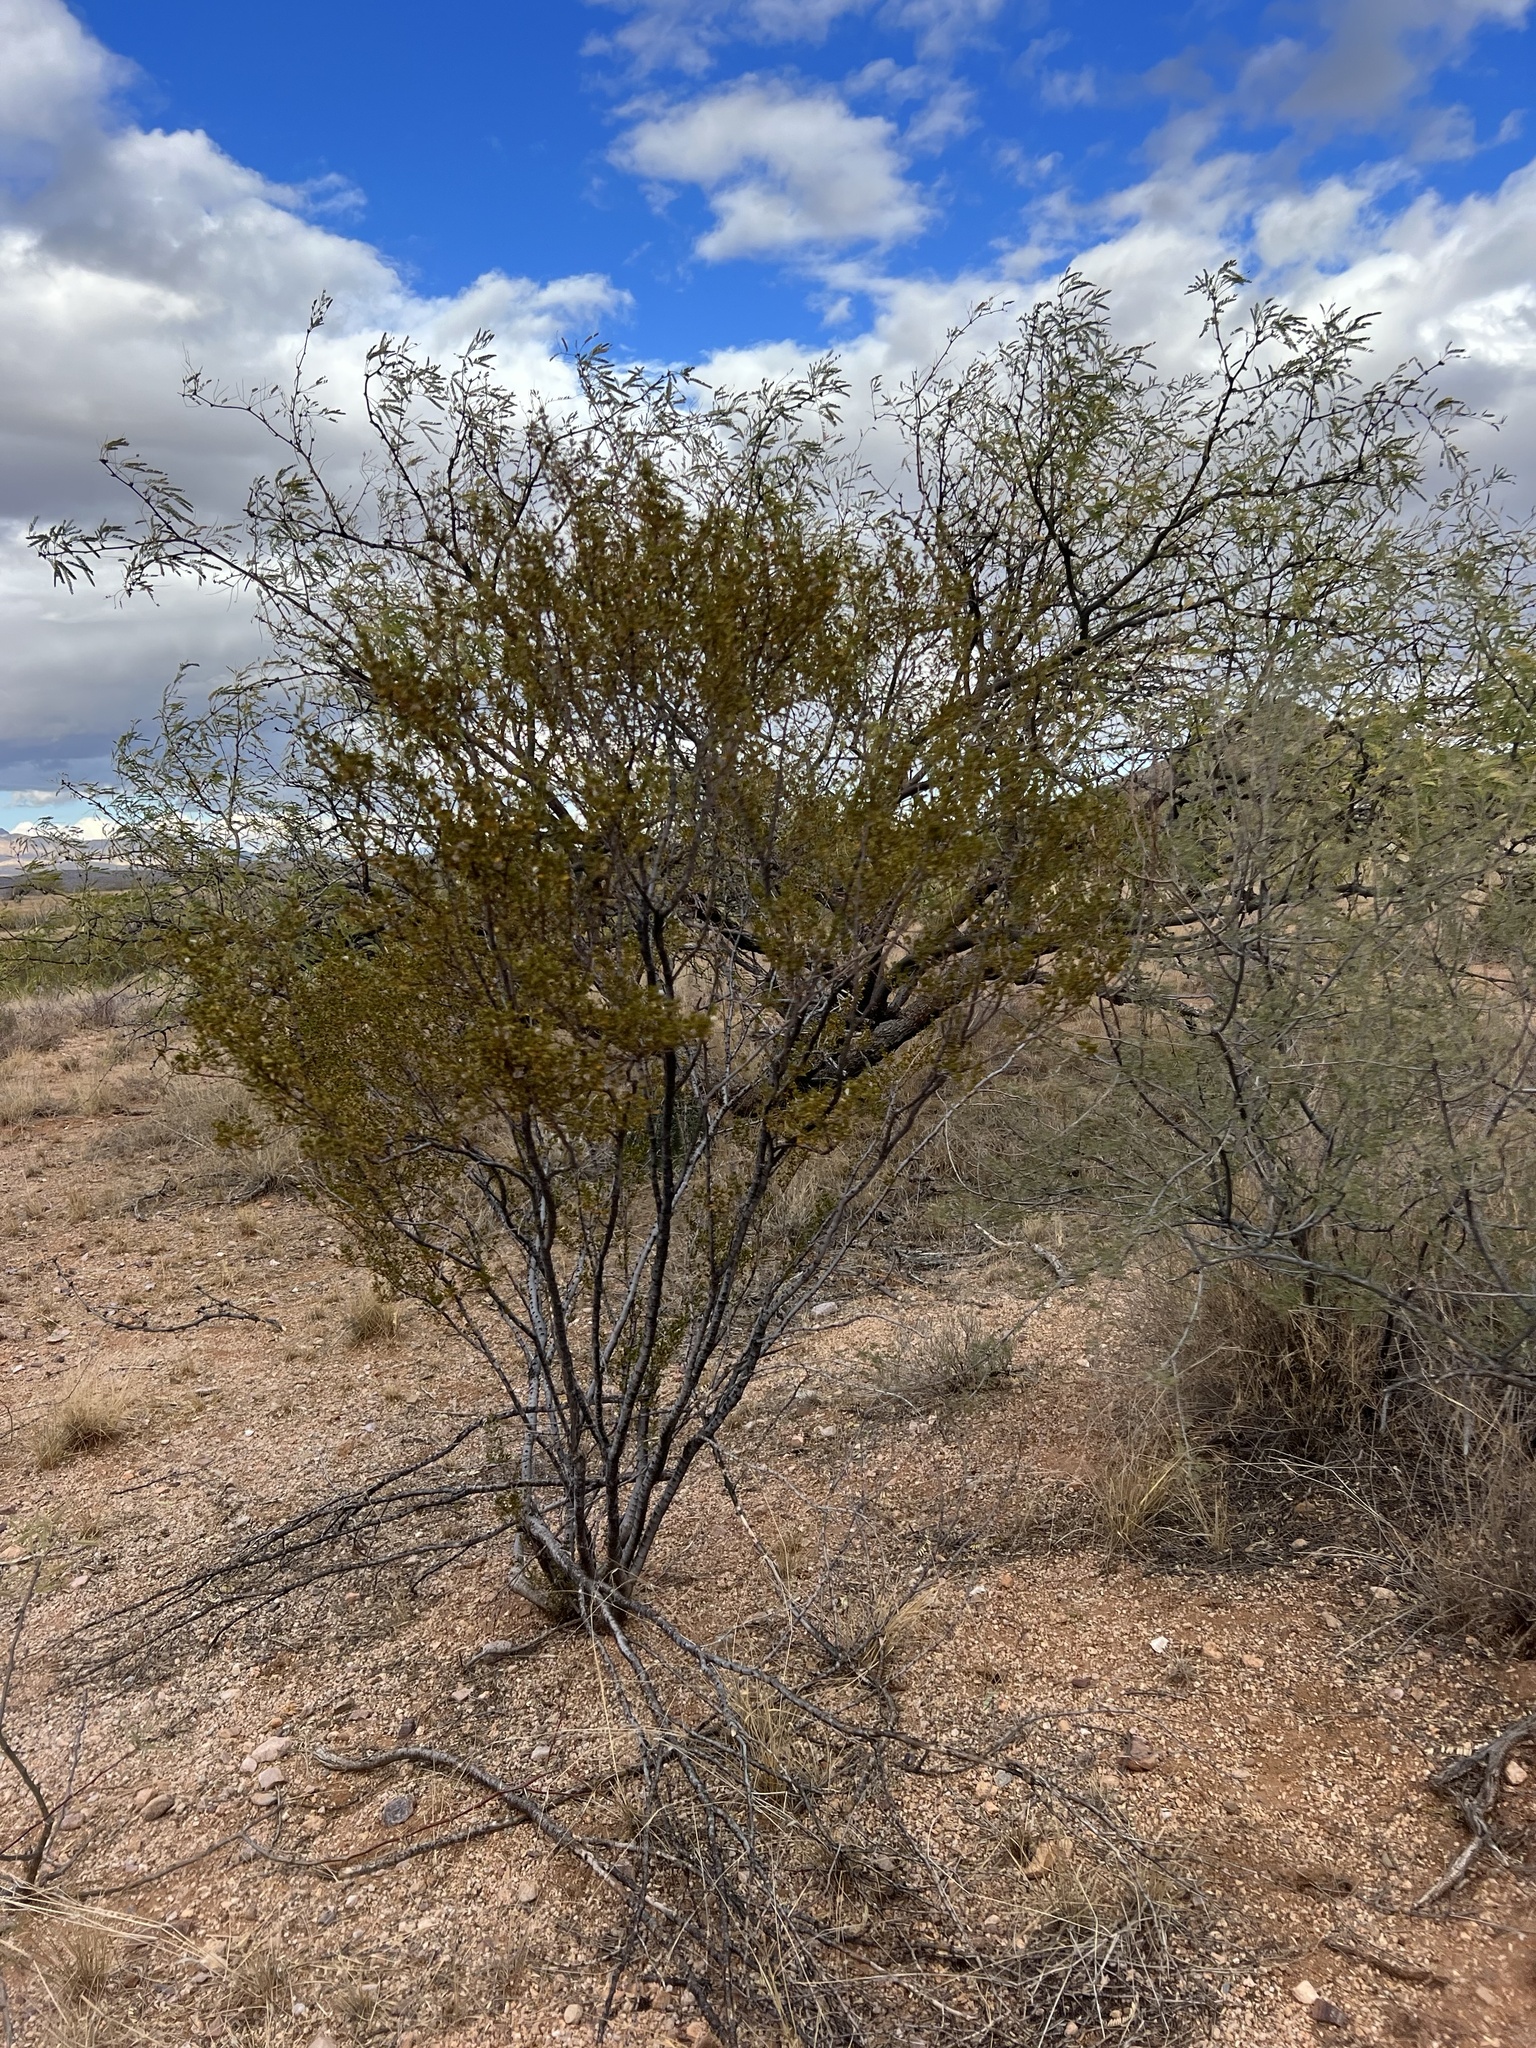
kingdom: Plantae
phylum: Tracheophyta
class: Magnoliopsida
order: Zygophyllales
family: Zygophyllaceae
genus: Larrea
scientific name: Larrea tridentata
